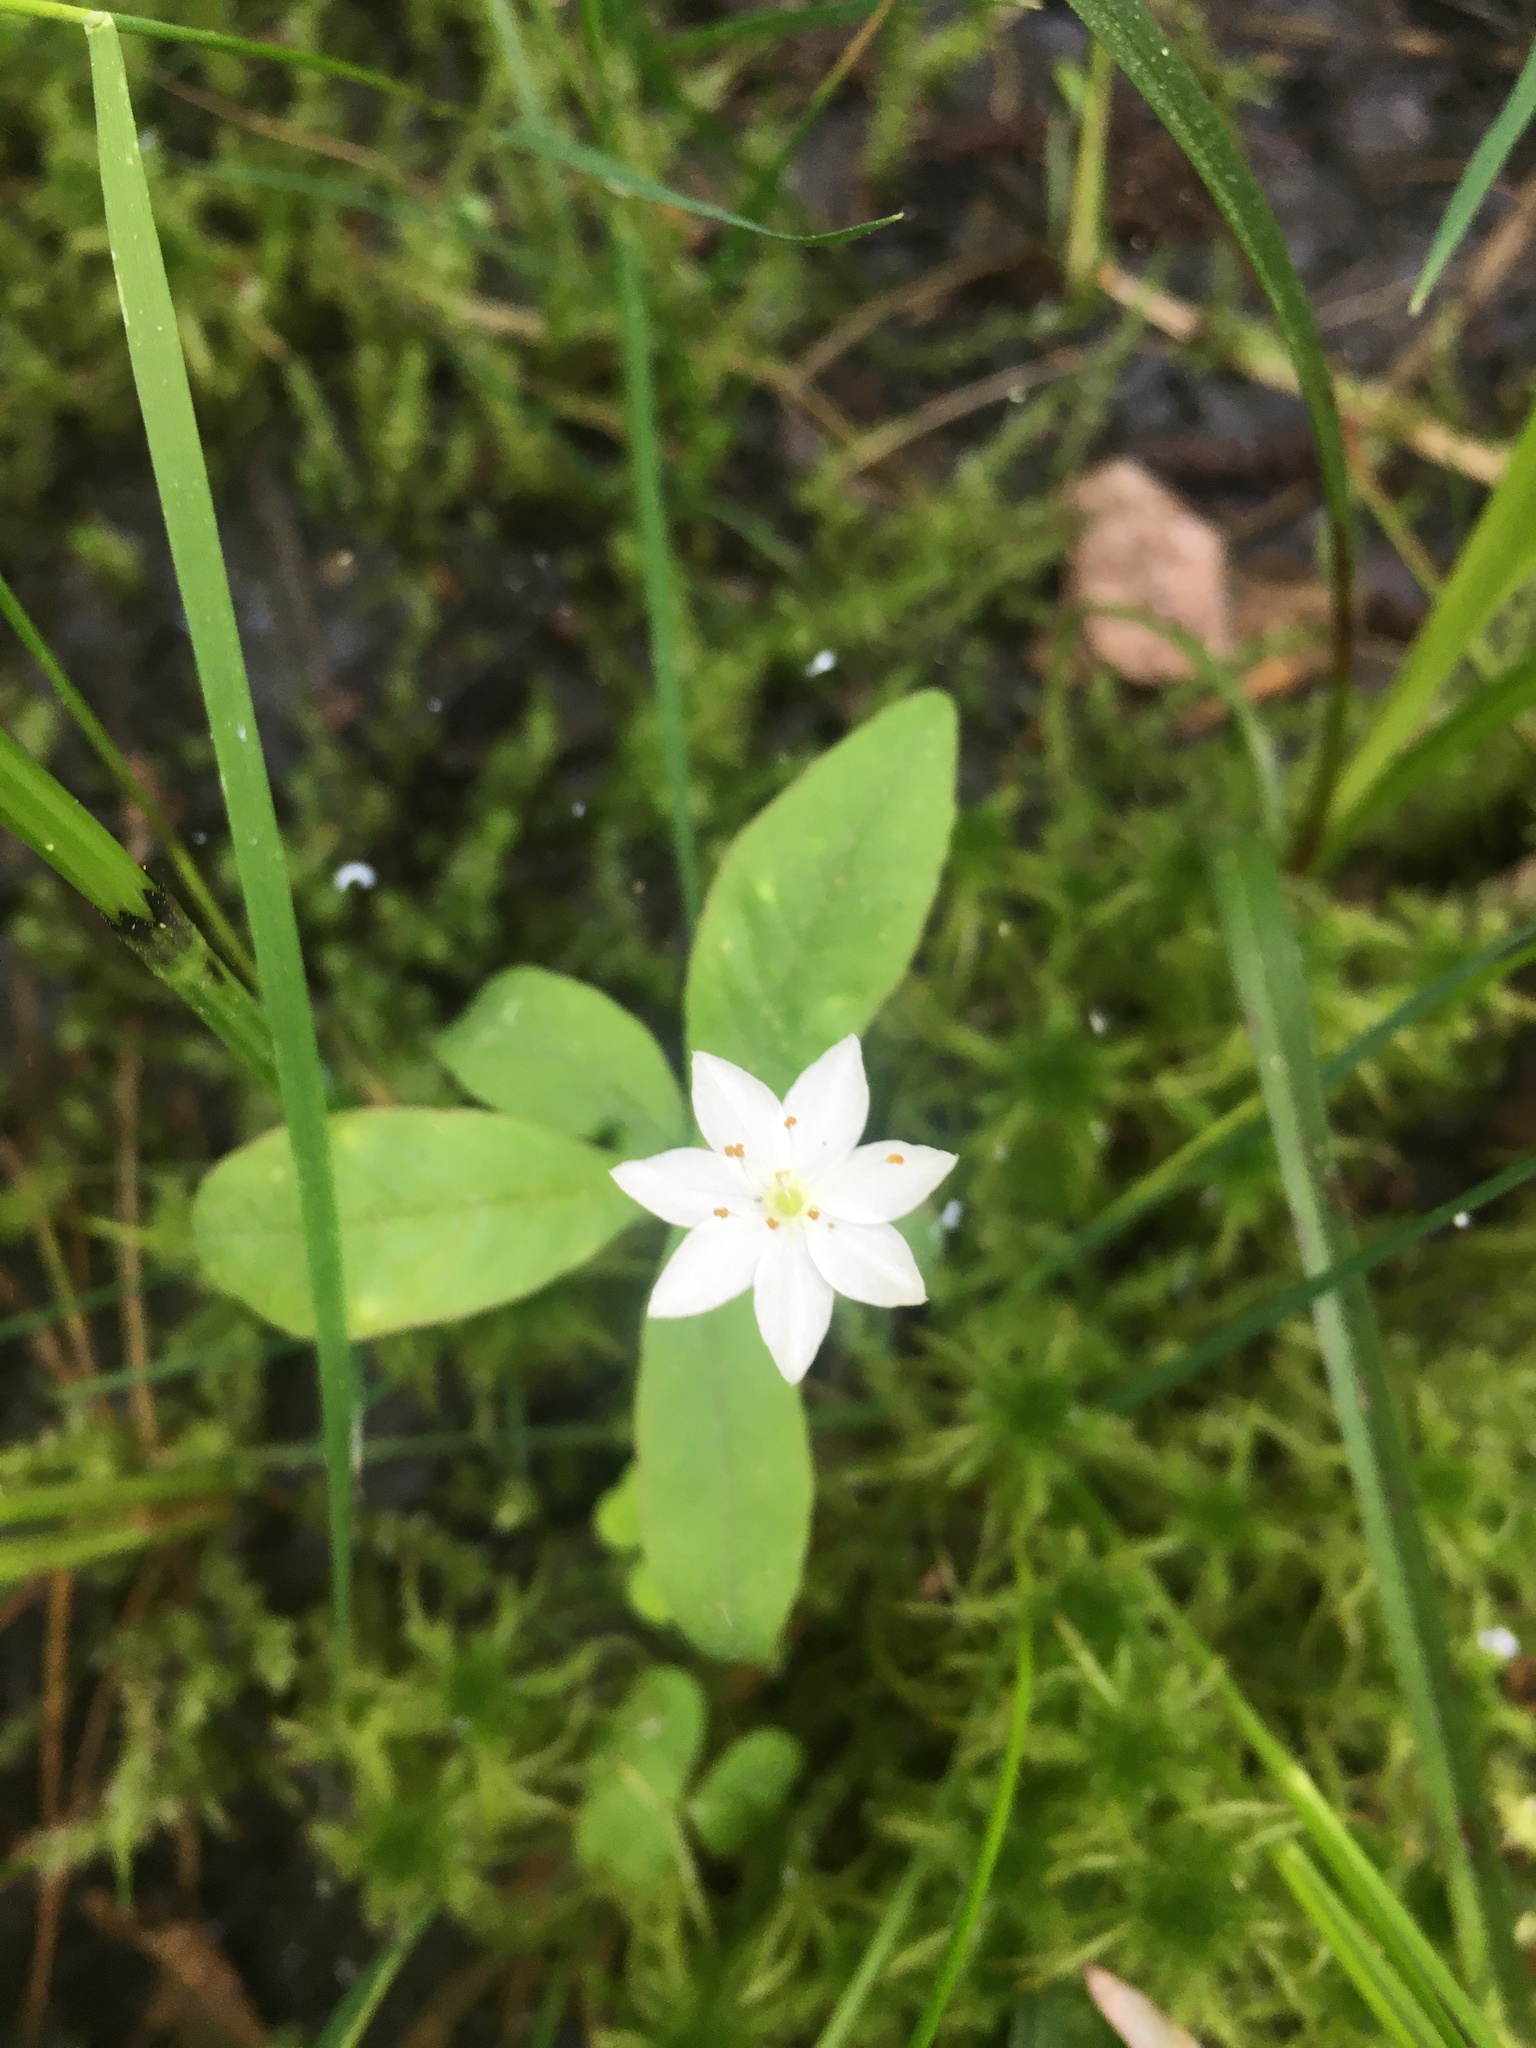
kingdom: Plantae
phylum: Tracheophyta
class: Magnoliopsida
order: Ericales
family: Primulaceae
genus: Lysimachia
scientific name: Lysimachia europaea
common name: Arctic starflower
